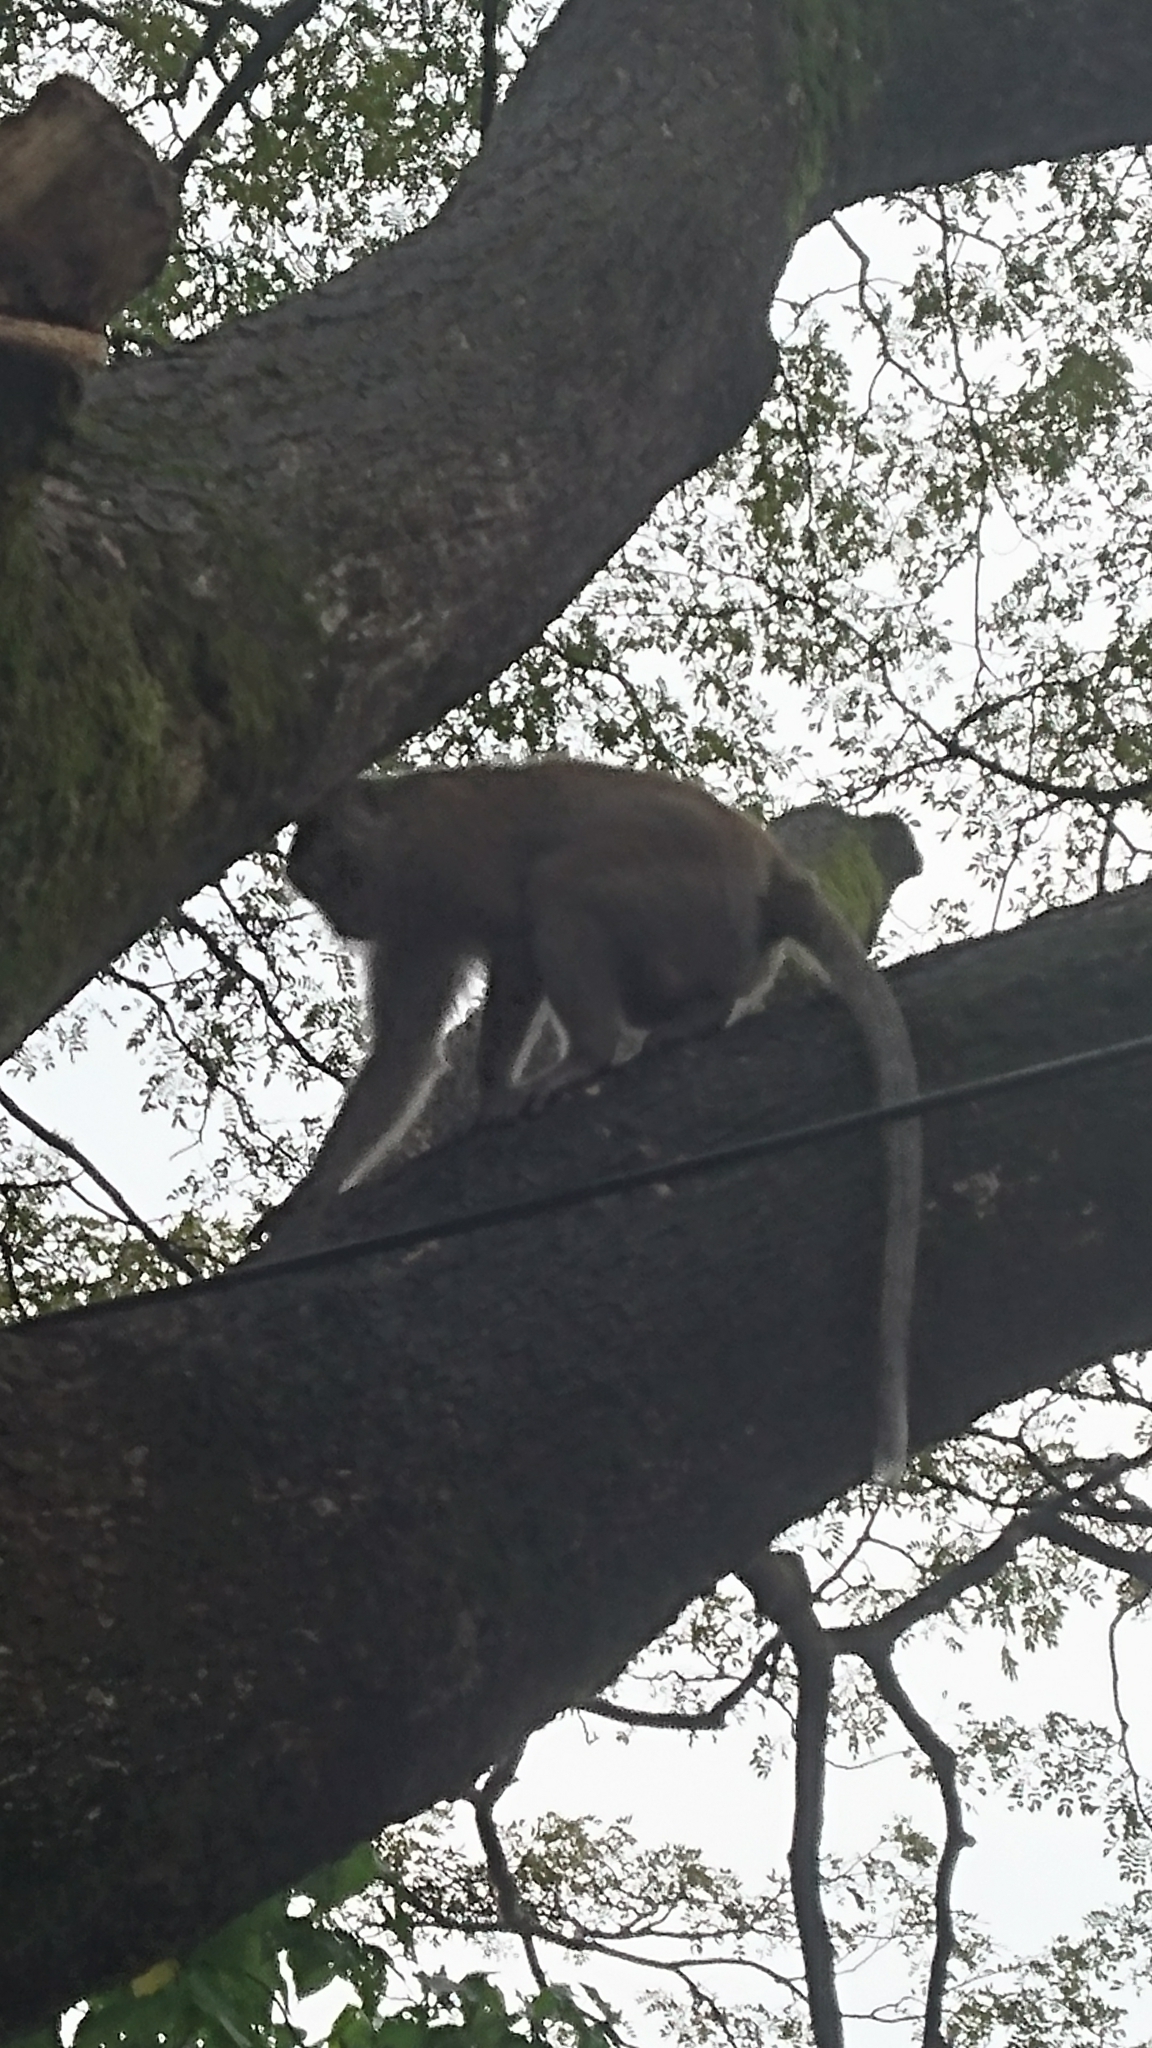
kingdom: Animalia
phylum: Chordata
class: Mammalia
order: Primates
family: Cercopithecidae
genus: Macaca
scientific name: Macaca fascicularis
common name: Crab-eating macaque
